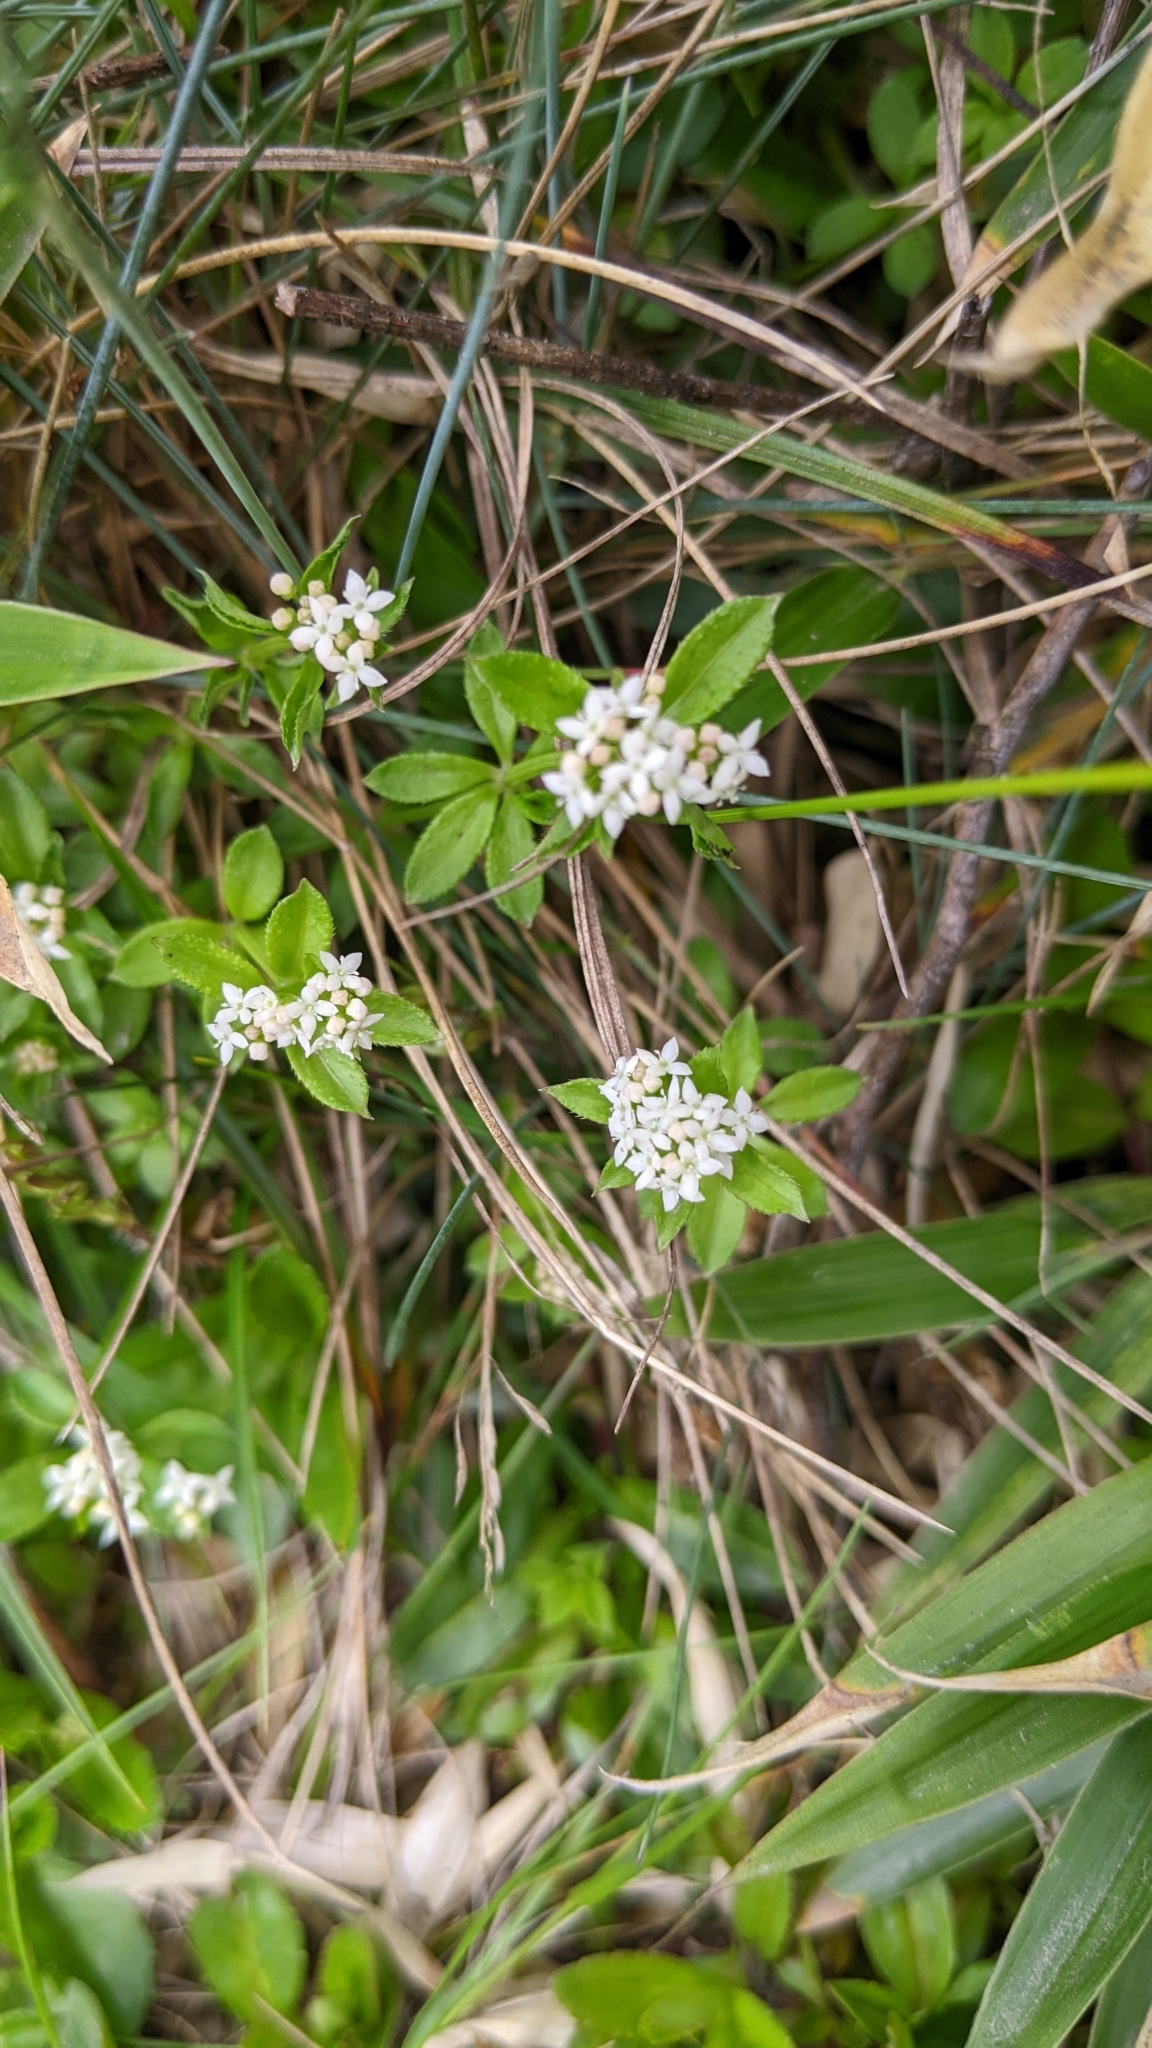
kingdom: Plantae
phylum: Tracheophyta
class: Magnoliopsida
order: Gentianales
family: Rubiaceae
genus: Galium
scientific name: Galium echinocarpum
